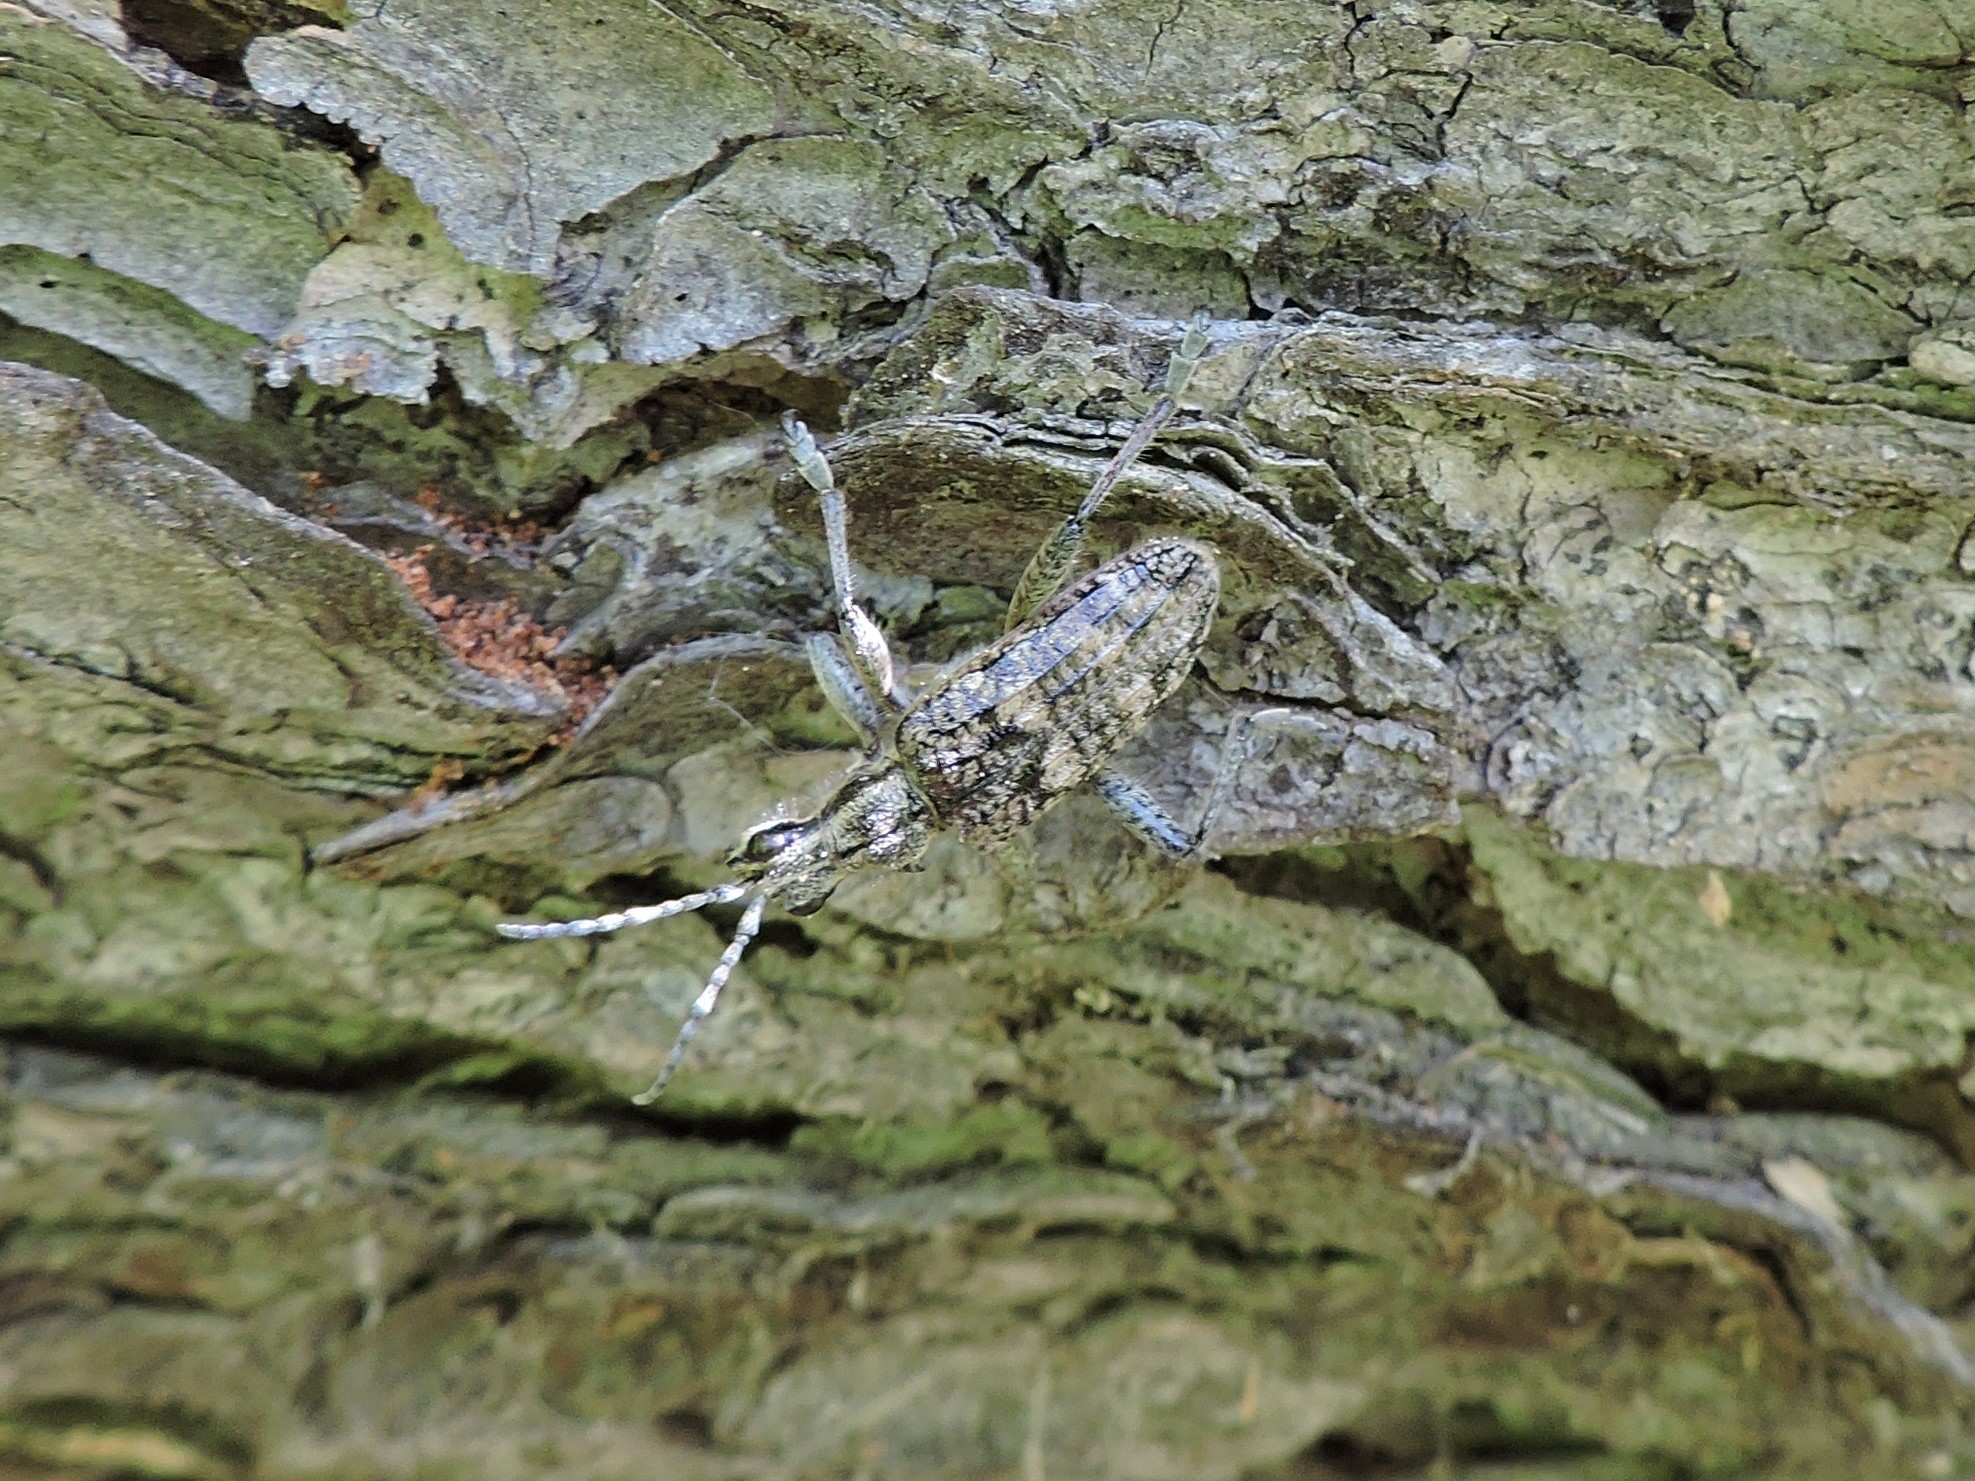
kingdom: Animalia
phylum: Arthropoda
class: Insecta
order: Coleoptera
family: Cerambycidae
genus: Rhagium
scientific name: Rhagium inquisitor
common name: Ribbed pine borer
